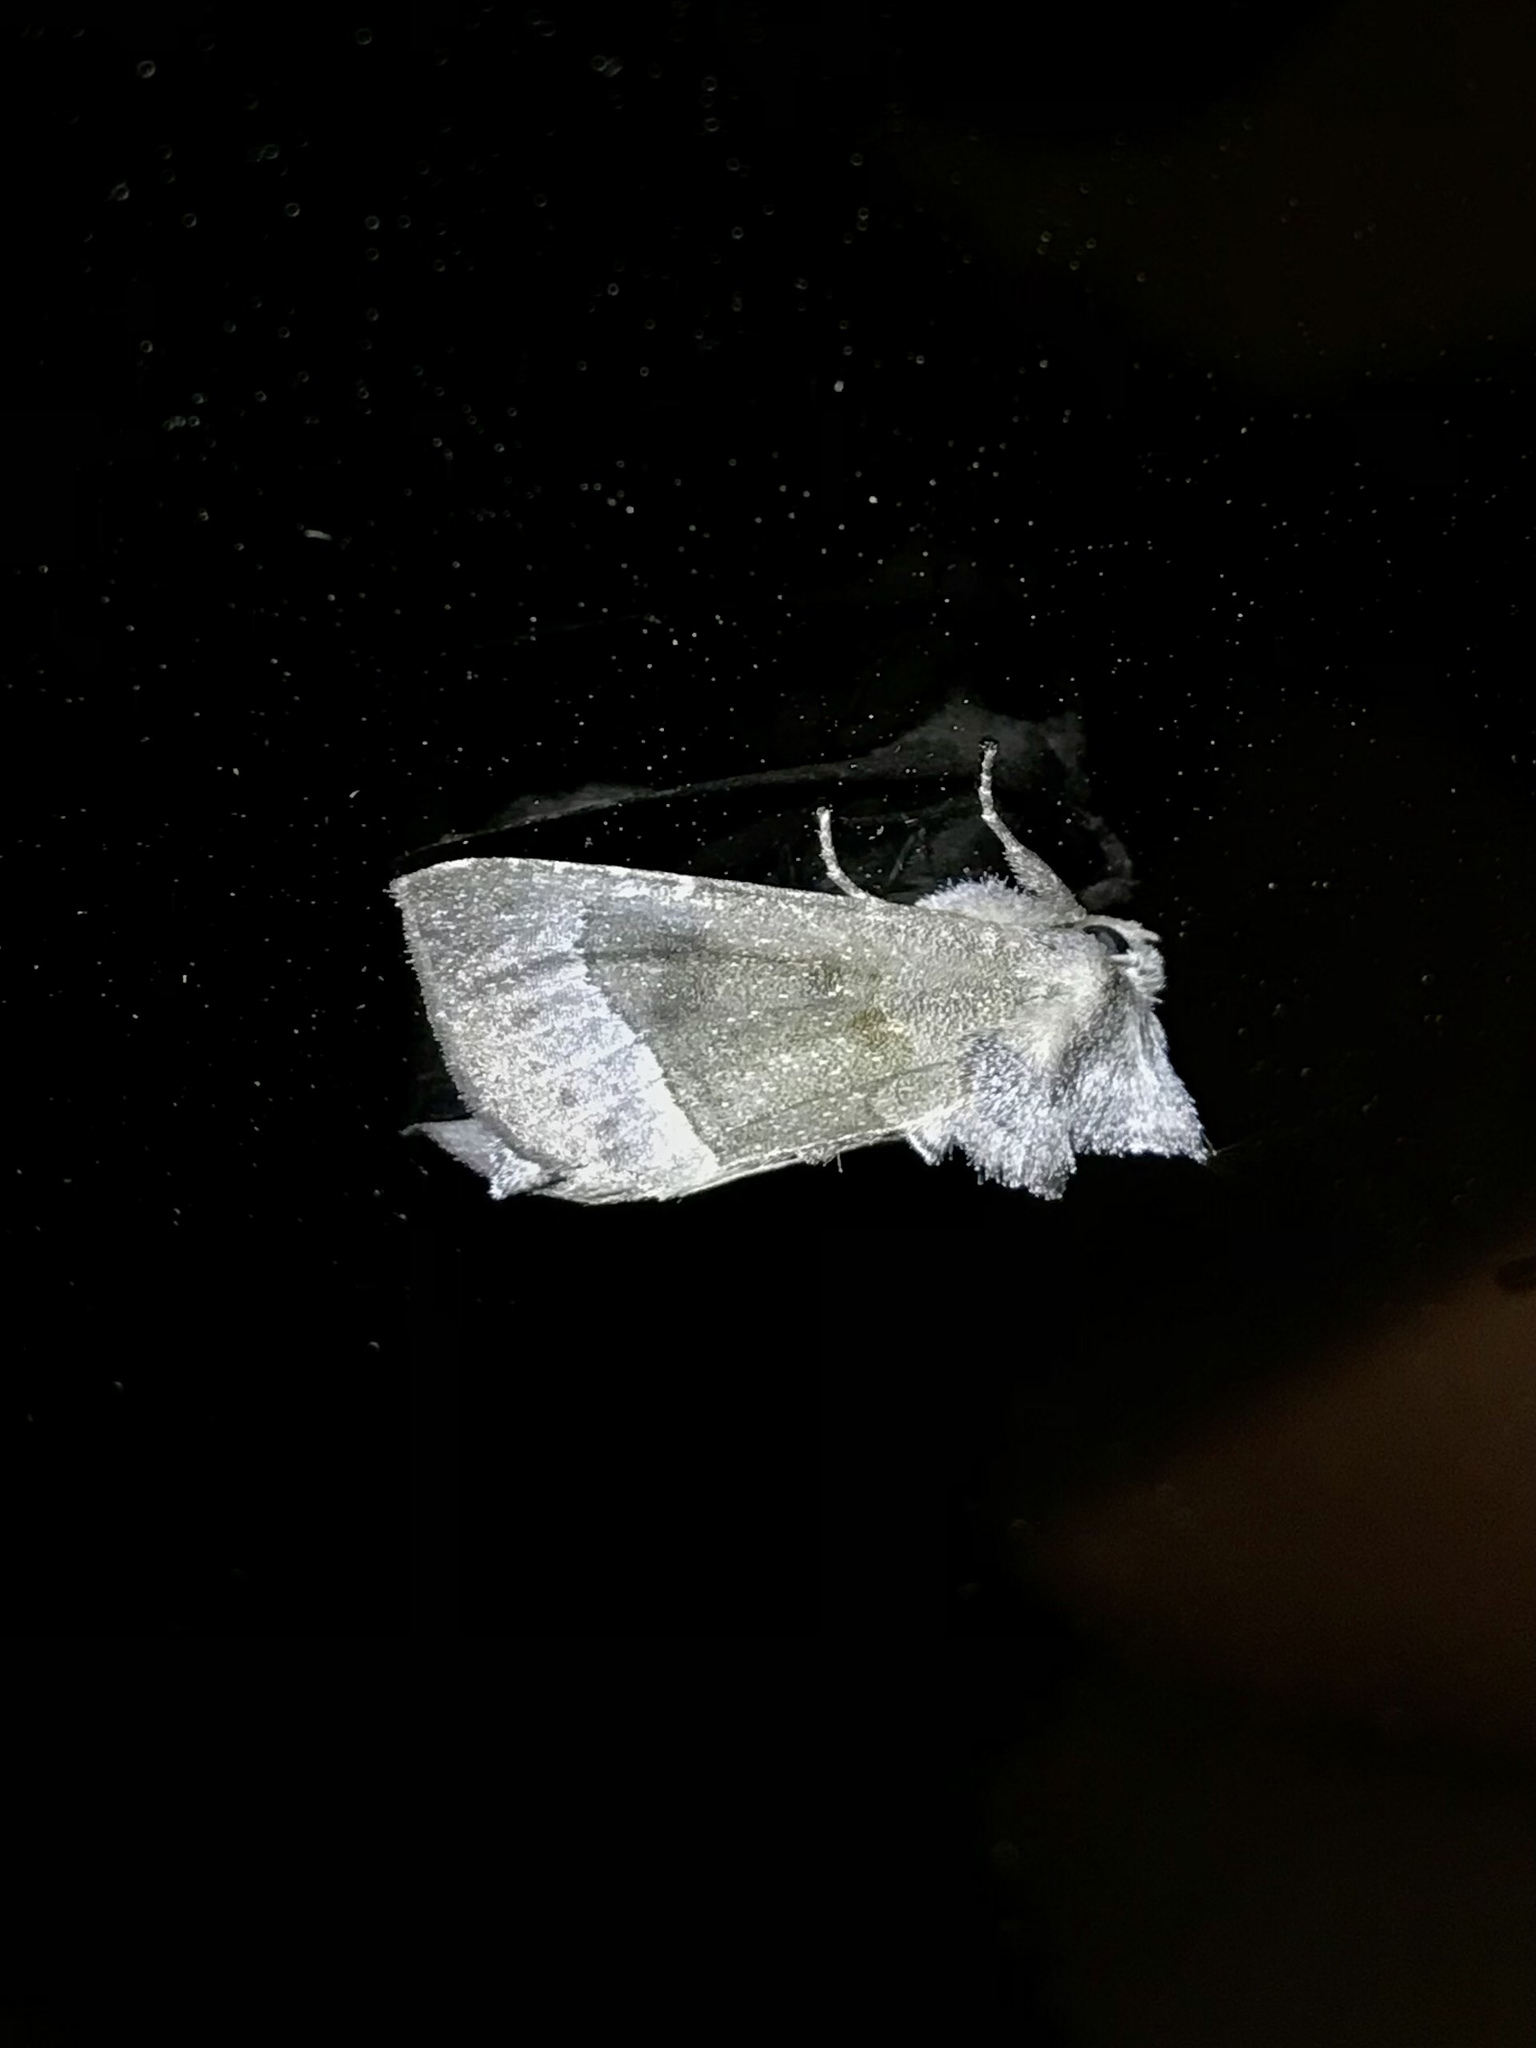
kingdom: Animalia
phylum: Arthropoda
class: Insecta
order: Lepidoptera
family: Noctuidae
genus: Papaipema
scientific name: Papaipema nebris
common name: Stalk borer
